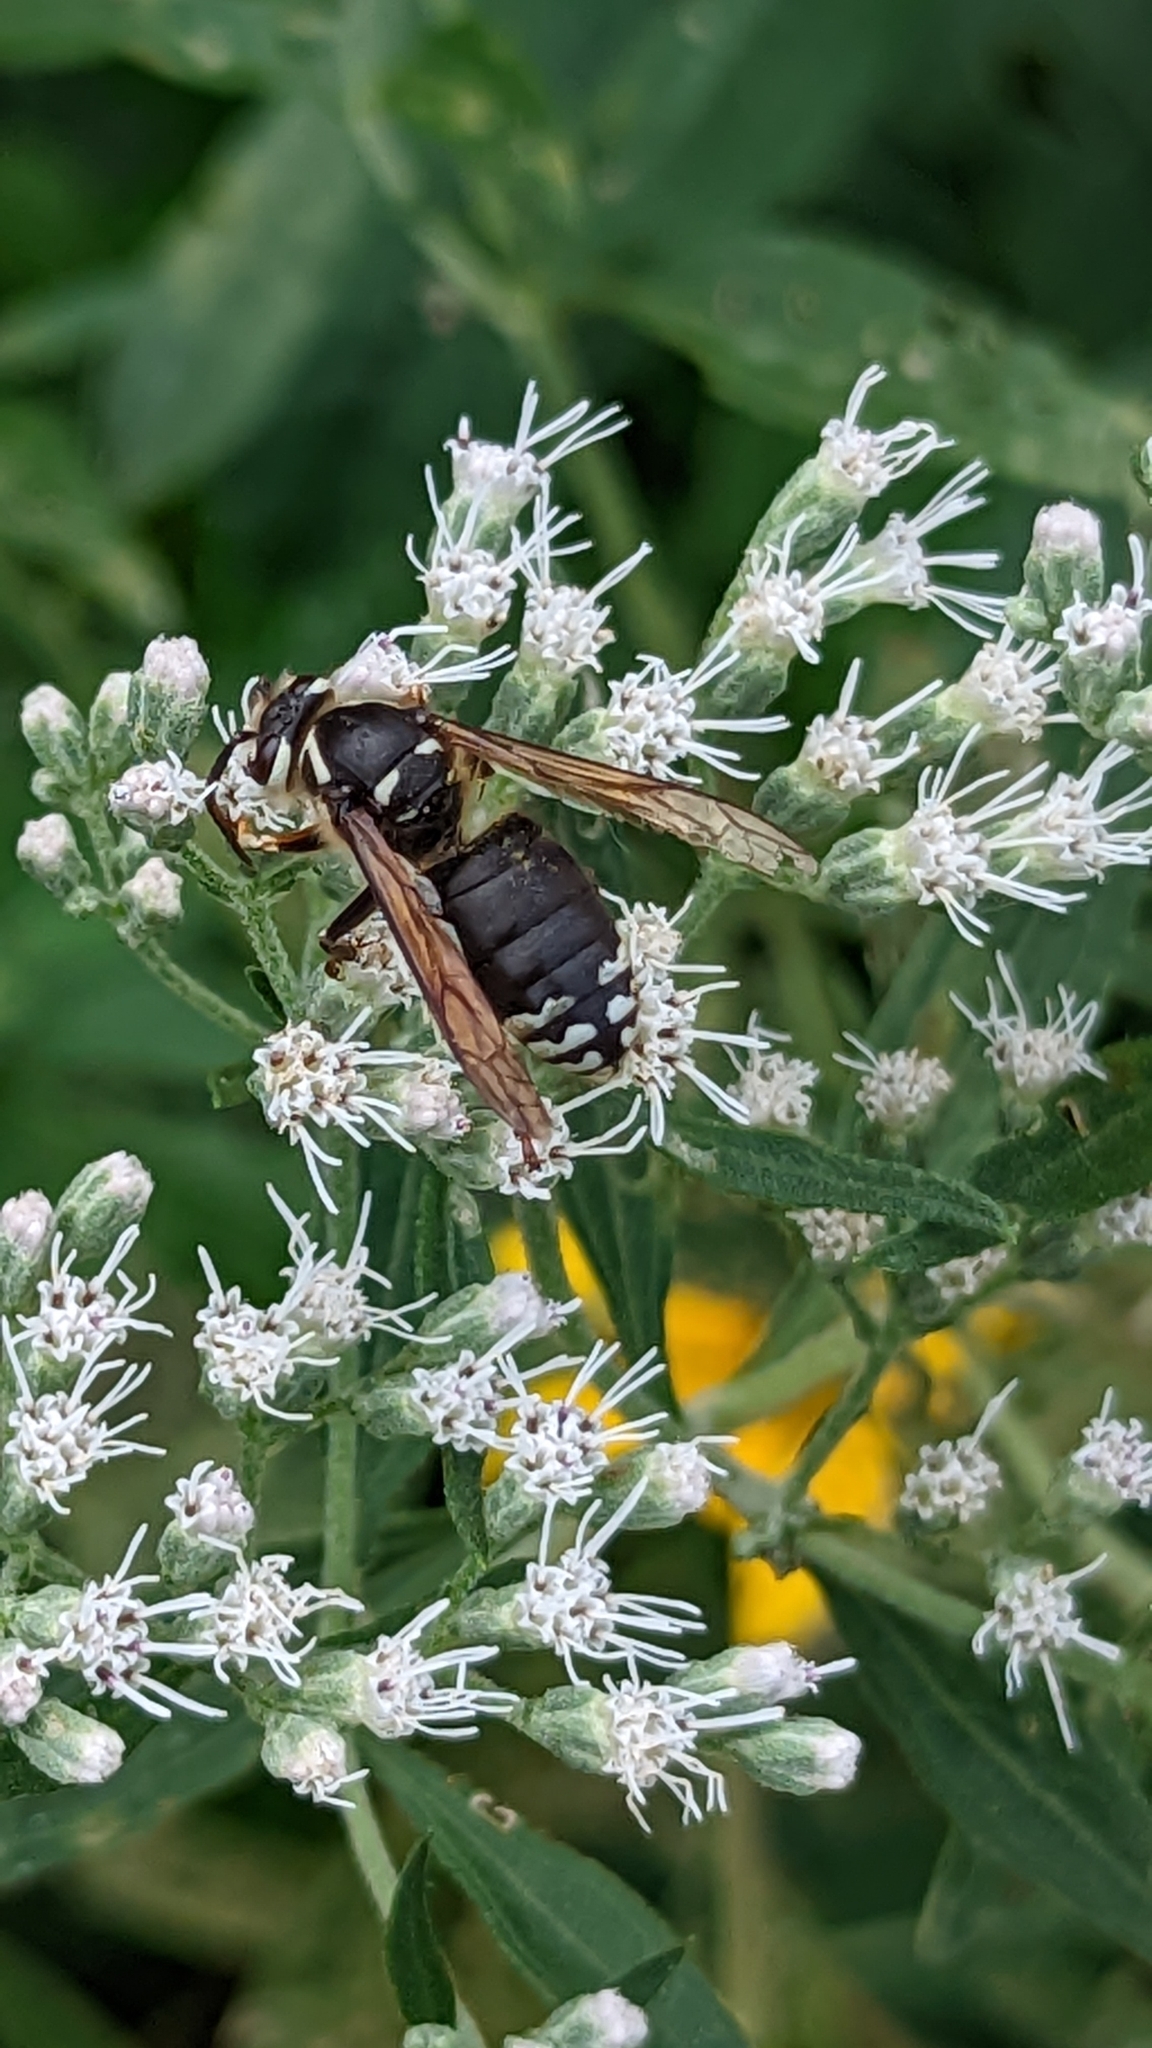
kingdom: Animalia
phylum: Arthropoda
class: Insecta
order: Hymenoptera
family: Vespidae
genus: Dolichovespula
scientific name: Dolichovespula maculata
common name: Bald-faced hornet
